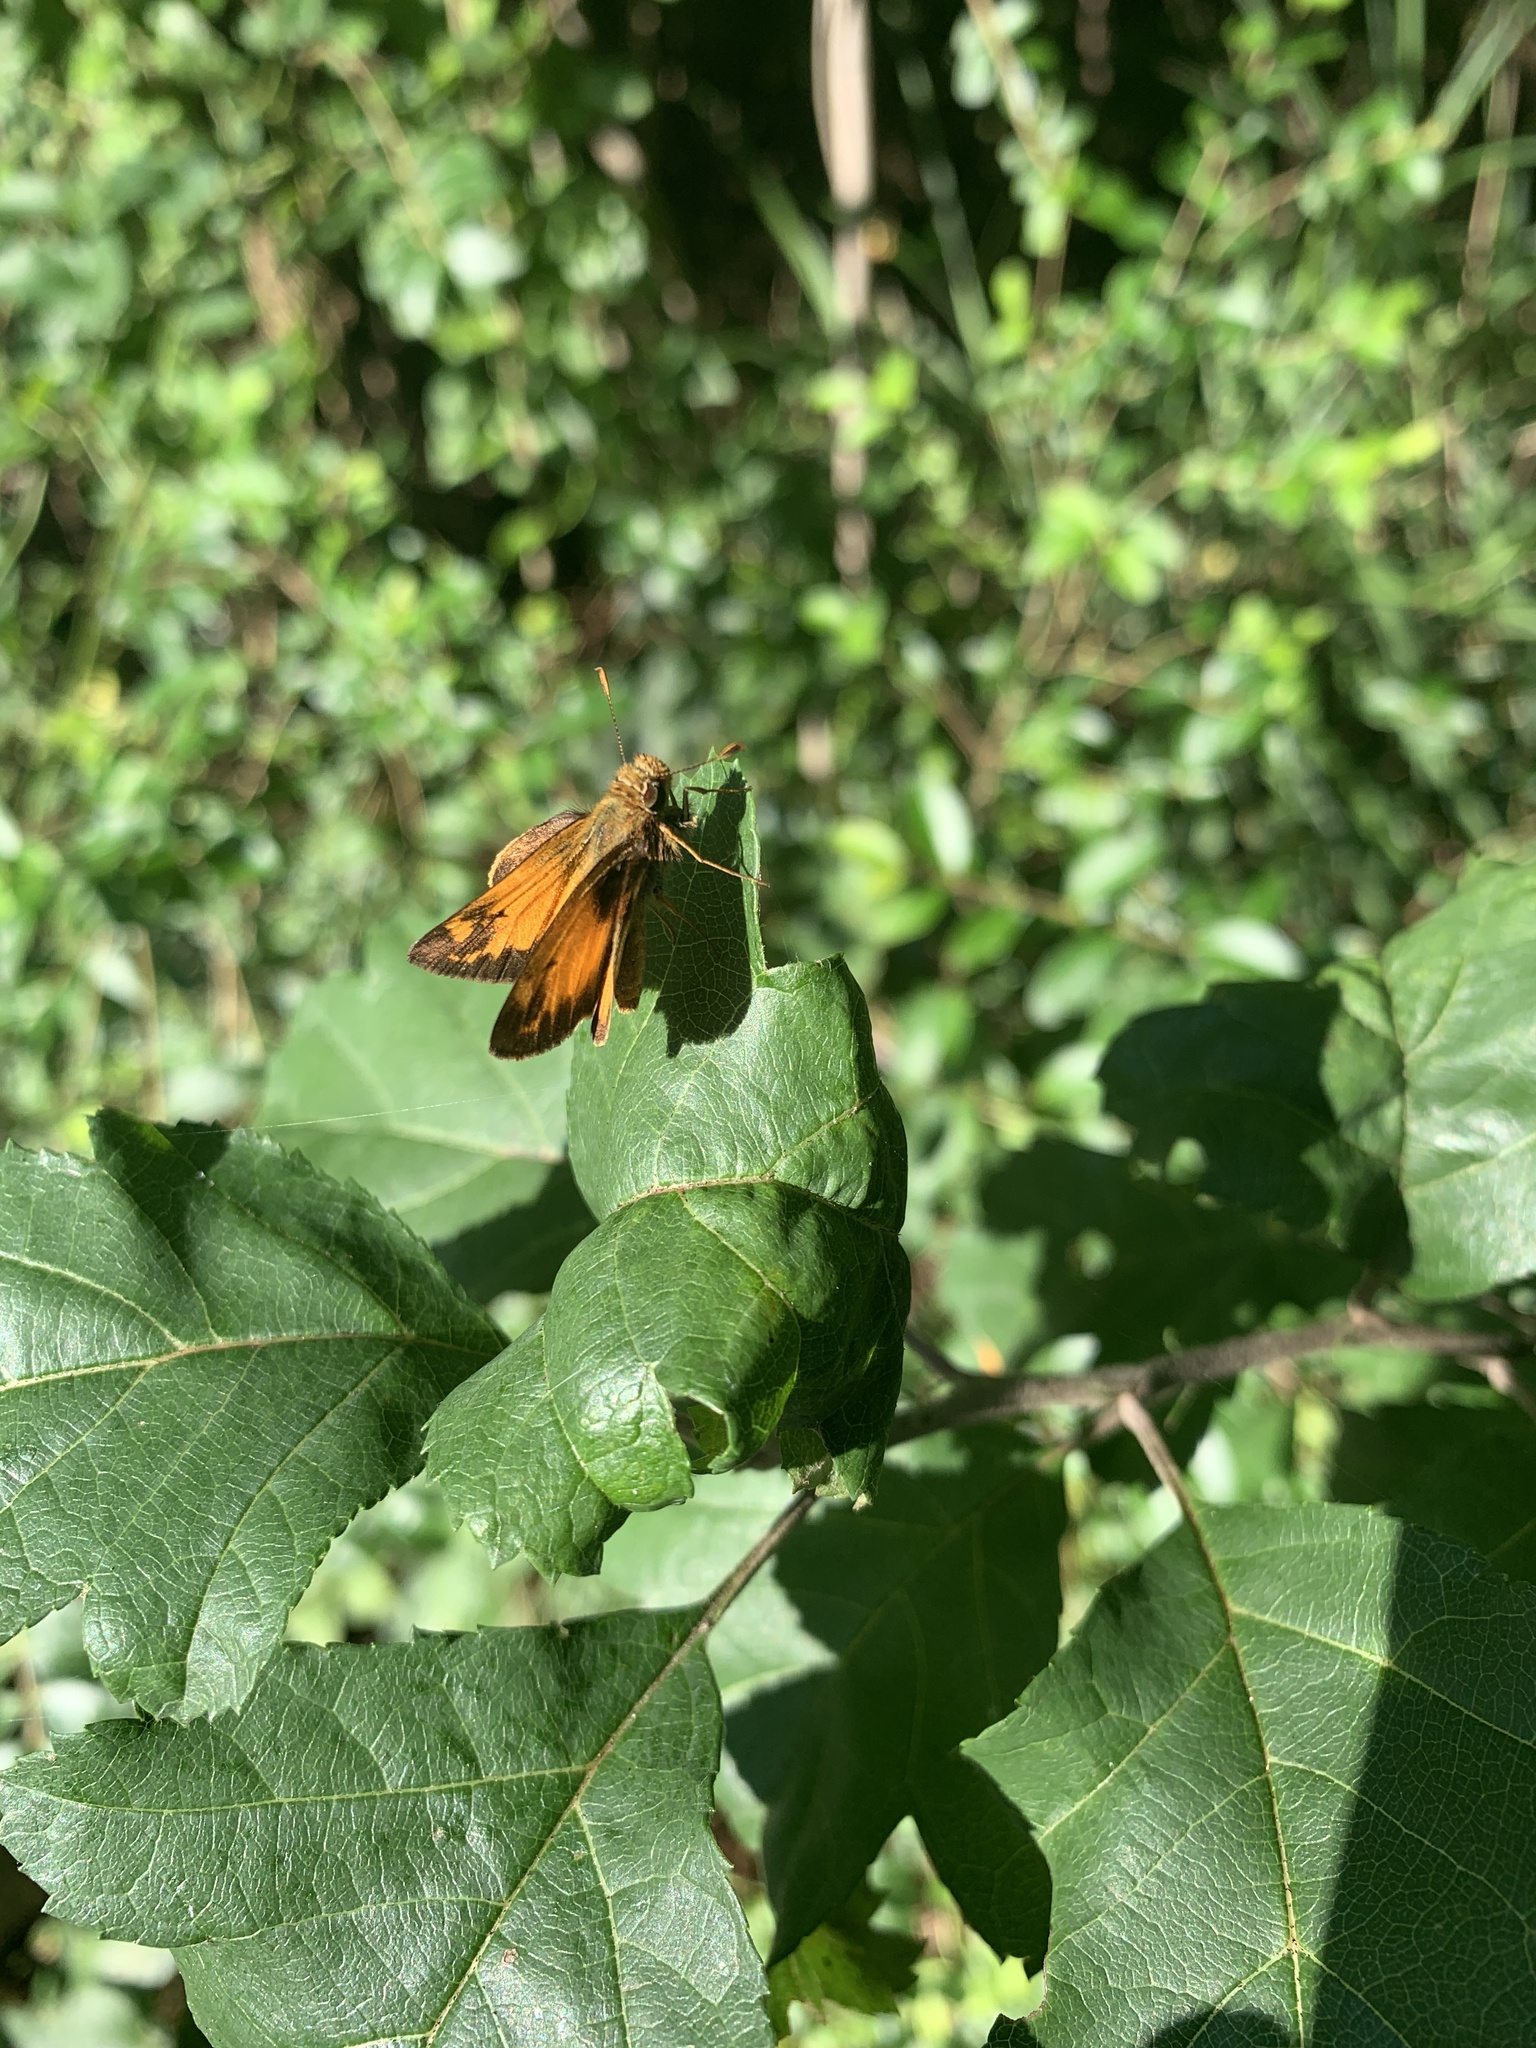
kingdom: Animalia
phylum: Arthropoda
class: Insecta
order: Lepidoptera
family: Hesperiidae
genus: Lon
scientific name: Lon zabulon
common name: Zabulon skipper
